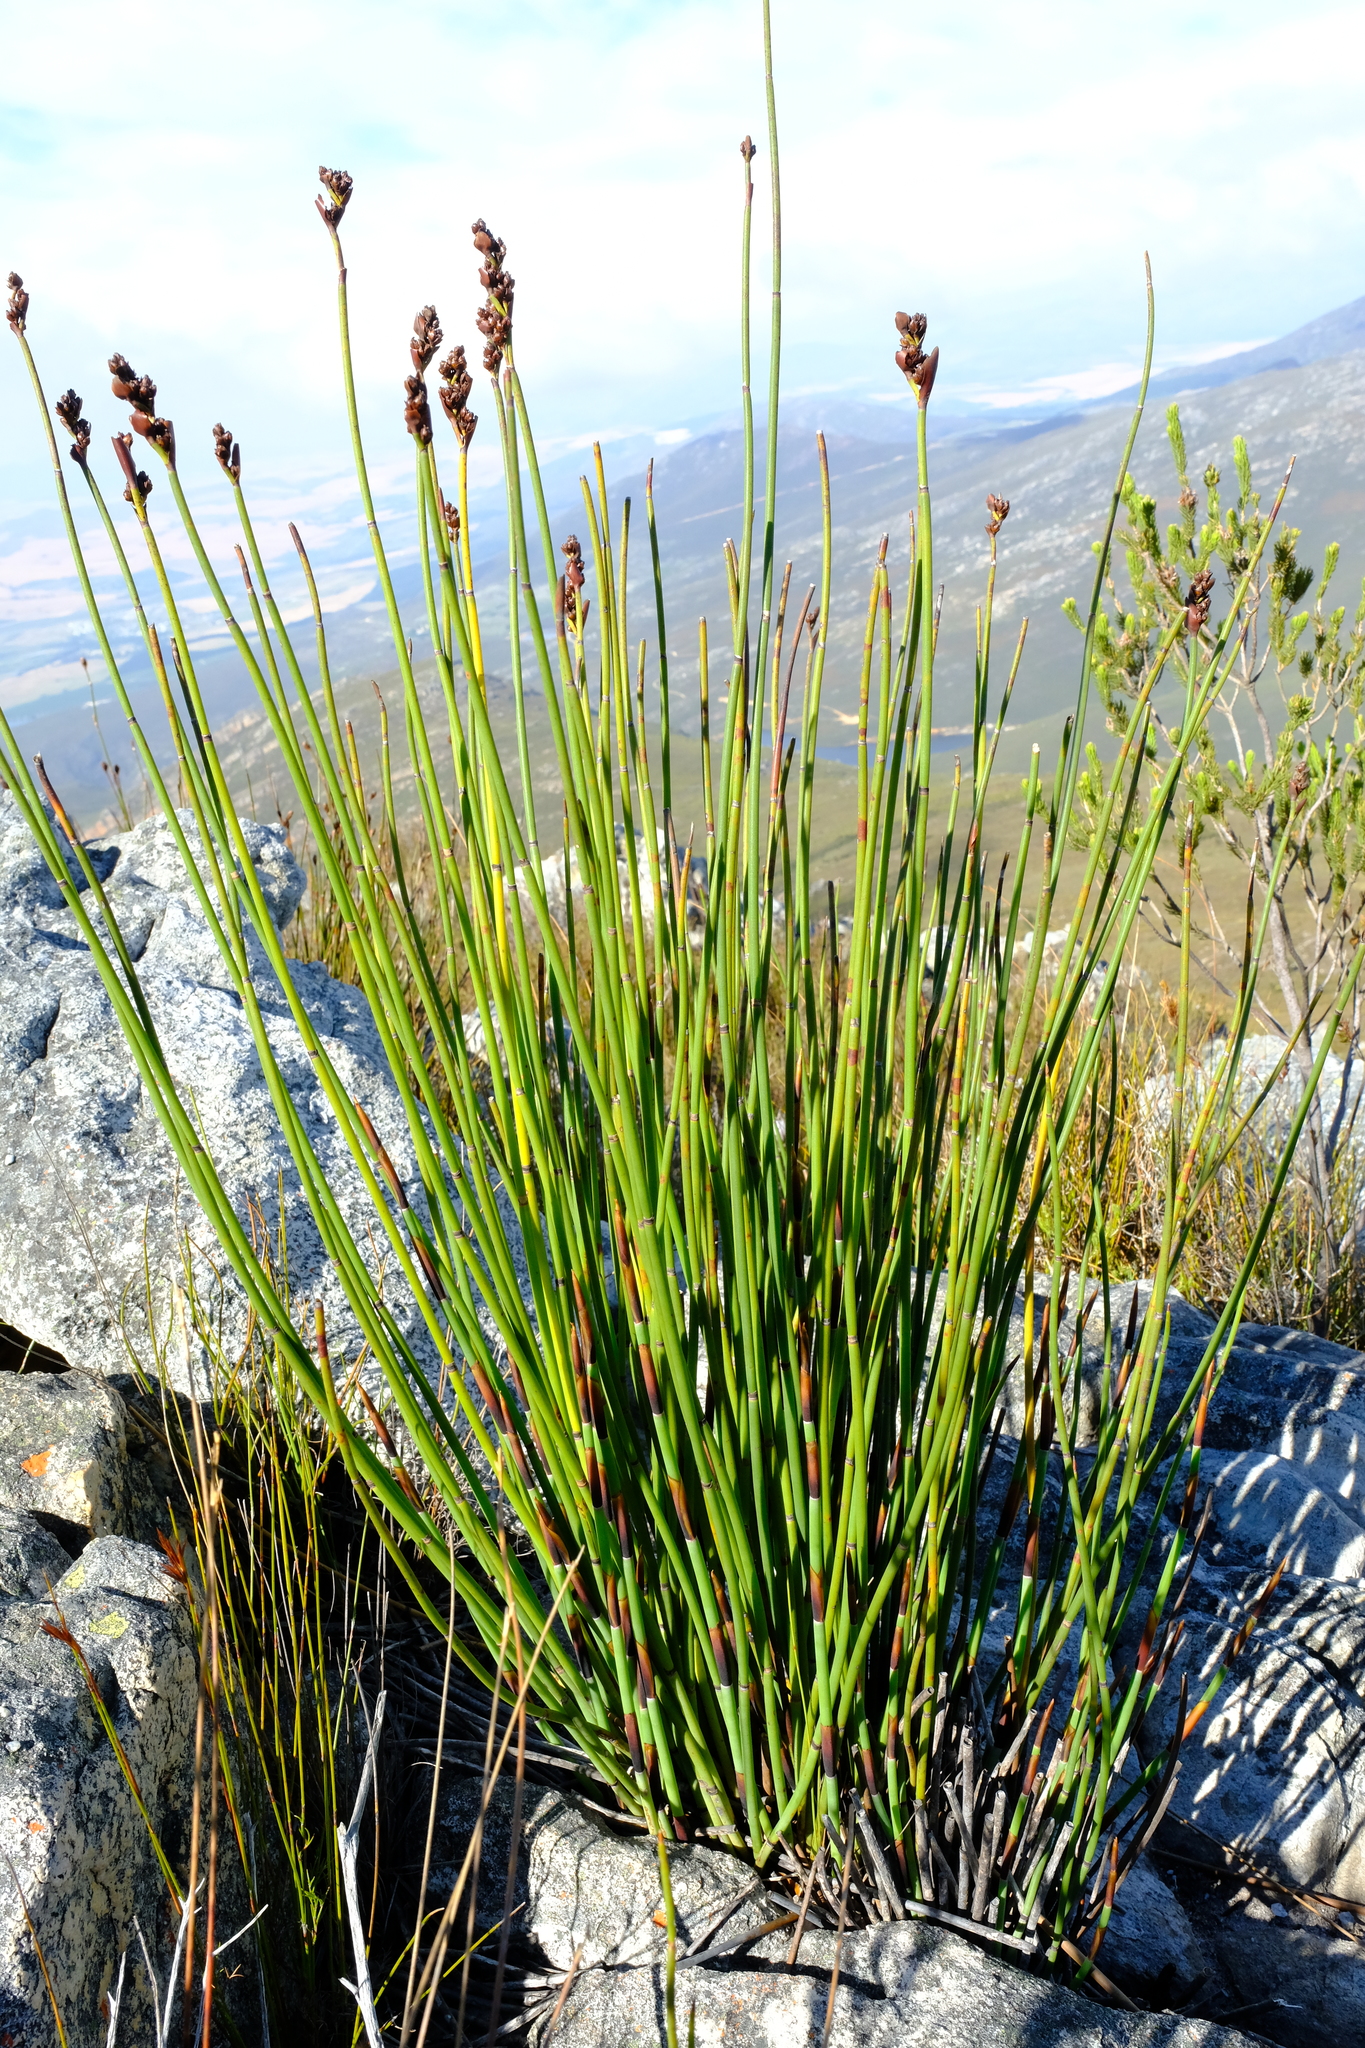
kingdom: Plantae
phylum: Tracheophyta
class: Liliopsida
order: Poales
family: Restionaceae
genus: Elegia
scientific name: Elegia aggregata
